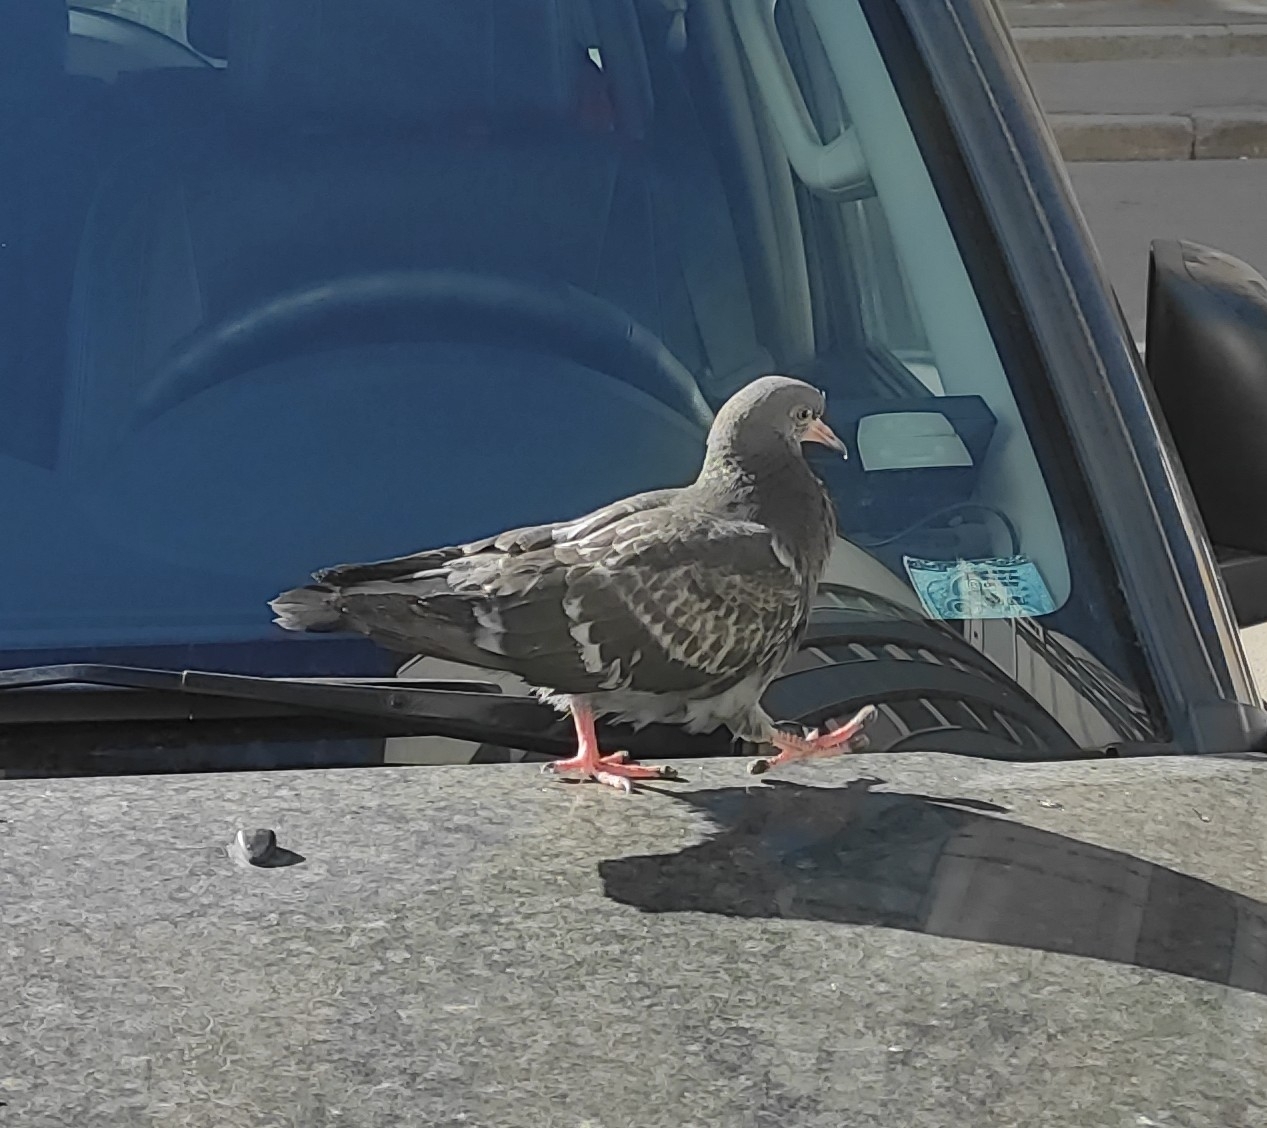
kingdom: Animalia
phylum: Chordata
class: Aves
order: Columbiformes
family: Columbidae
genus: Columba
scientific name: Columba livia
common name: Rock pigeon
